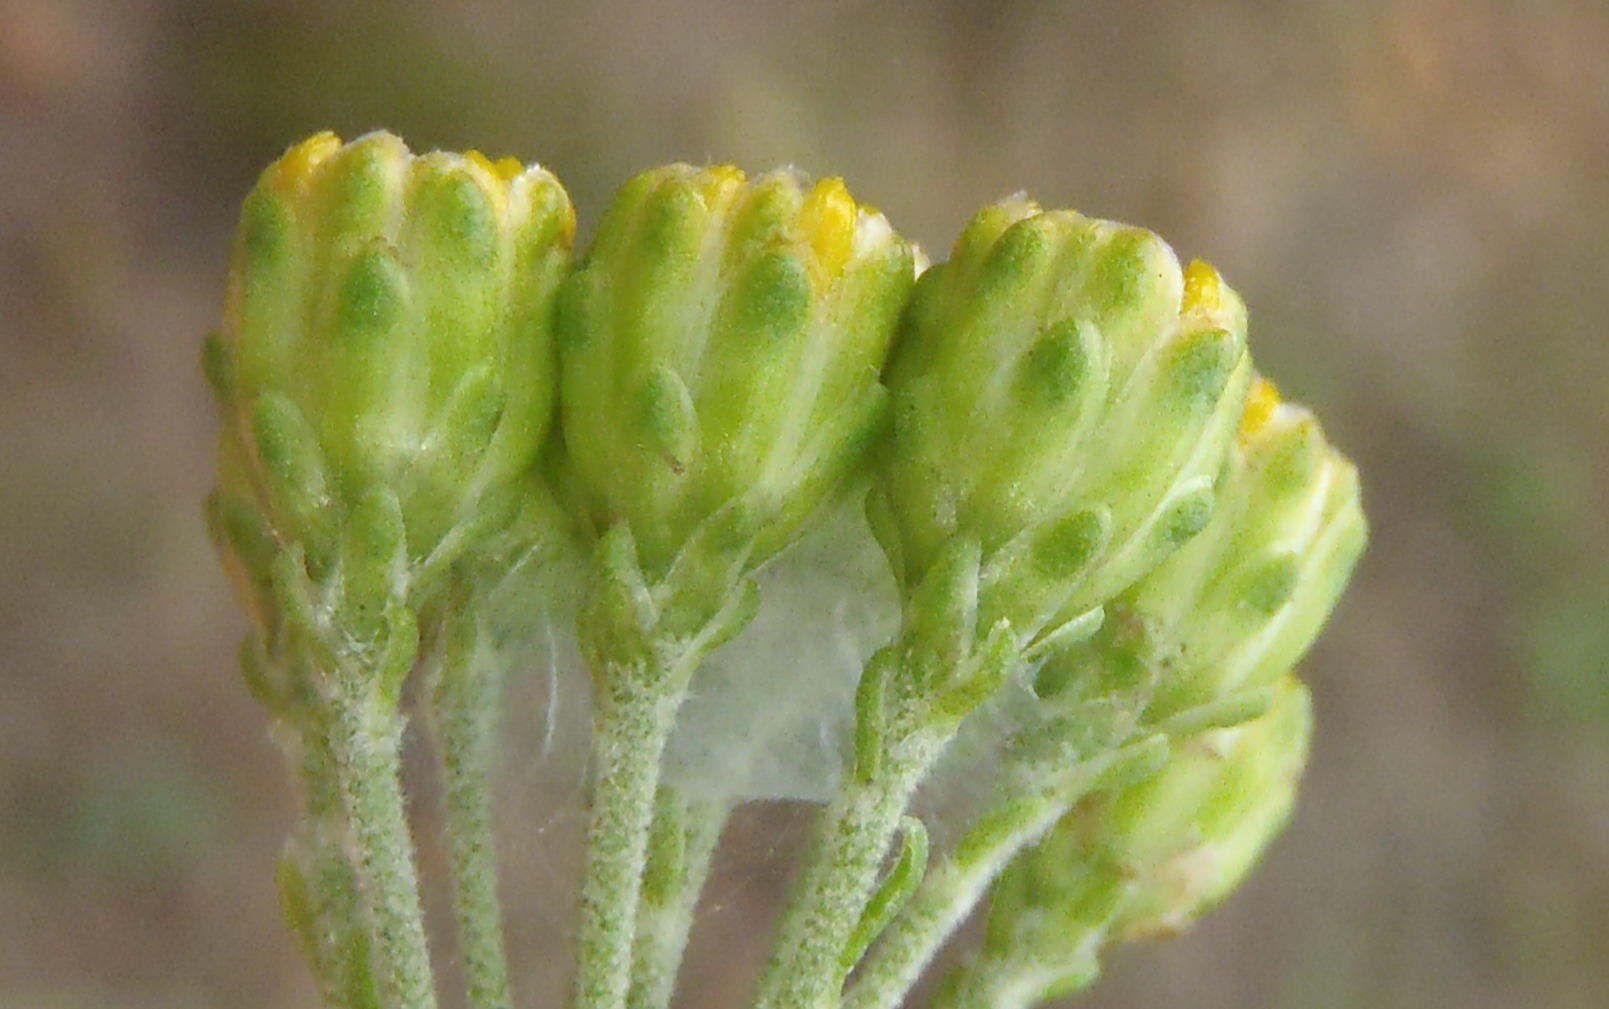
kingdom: Plantae
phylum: Tracheophyta
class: Magnoliopsida
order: Asterales
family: Asteraceae
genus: Athanasia
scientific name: Athanasia quinquedentata
